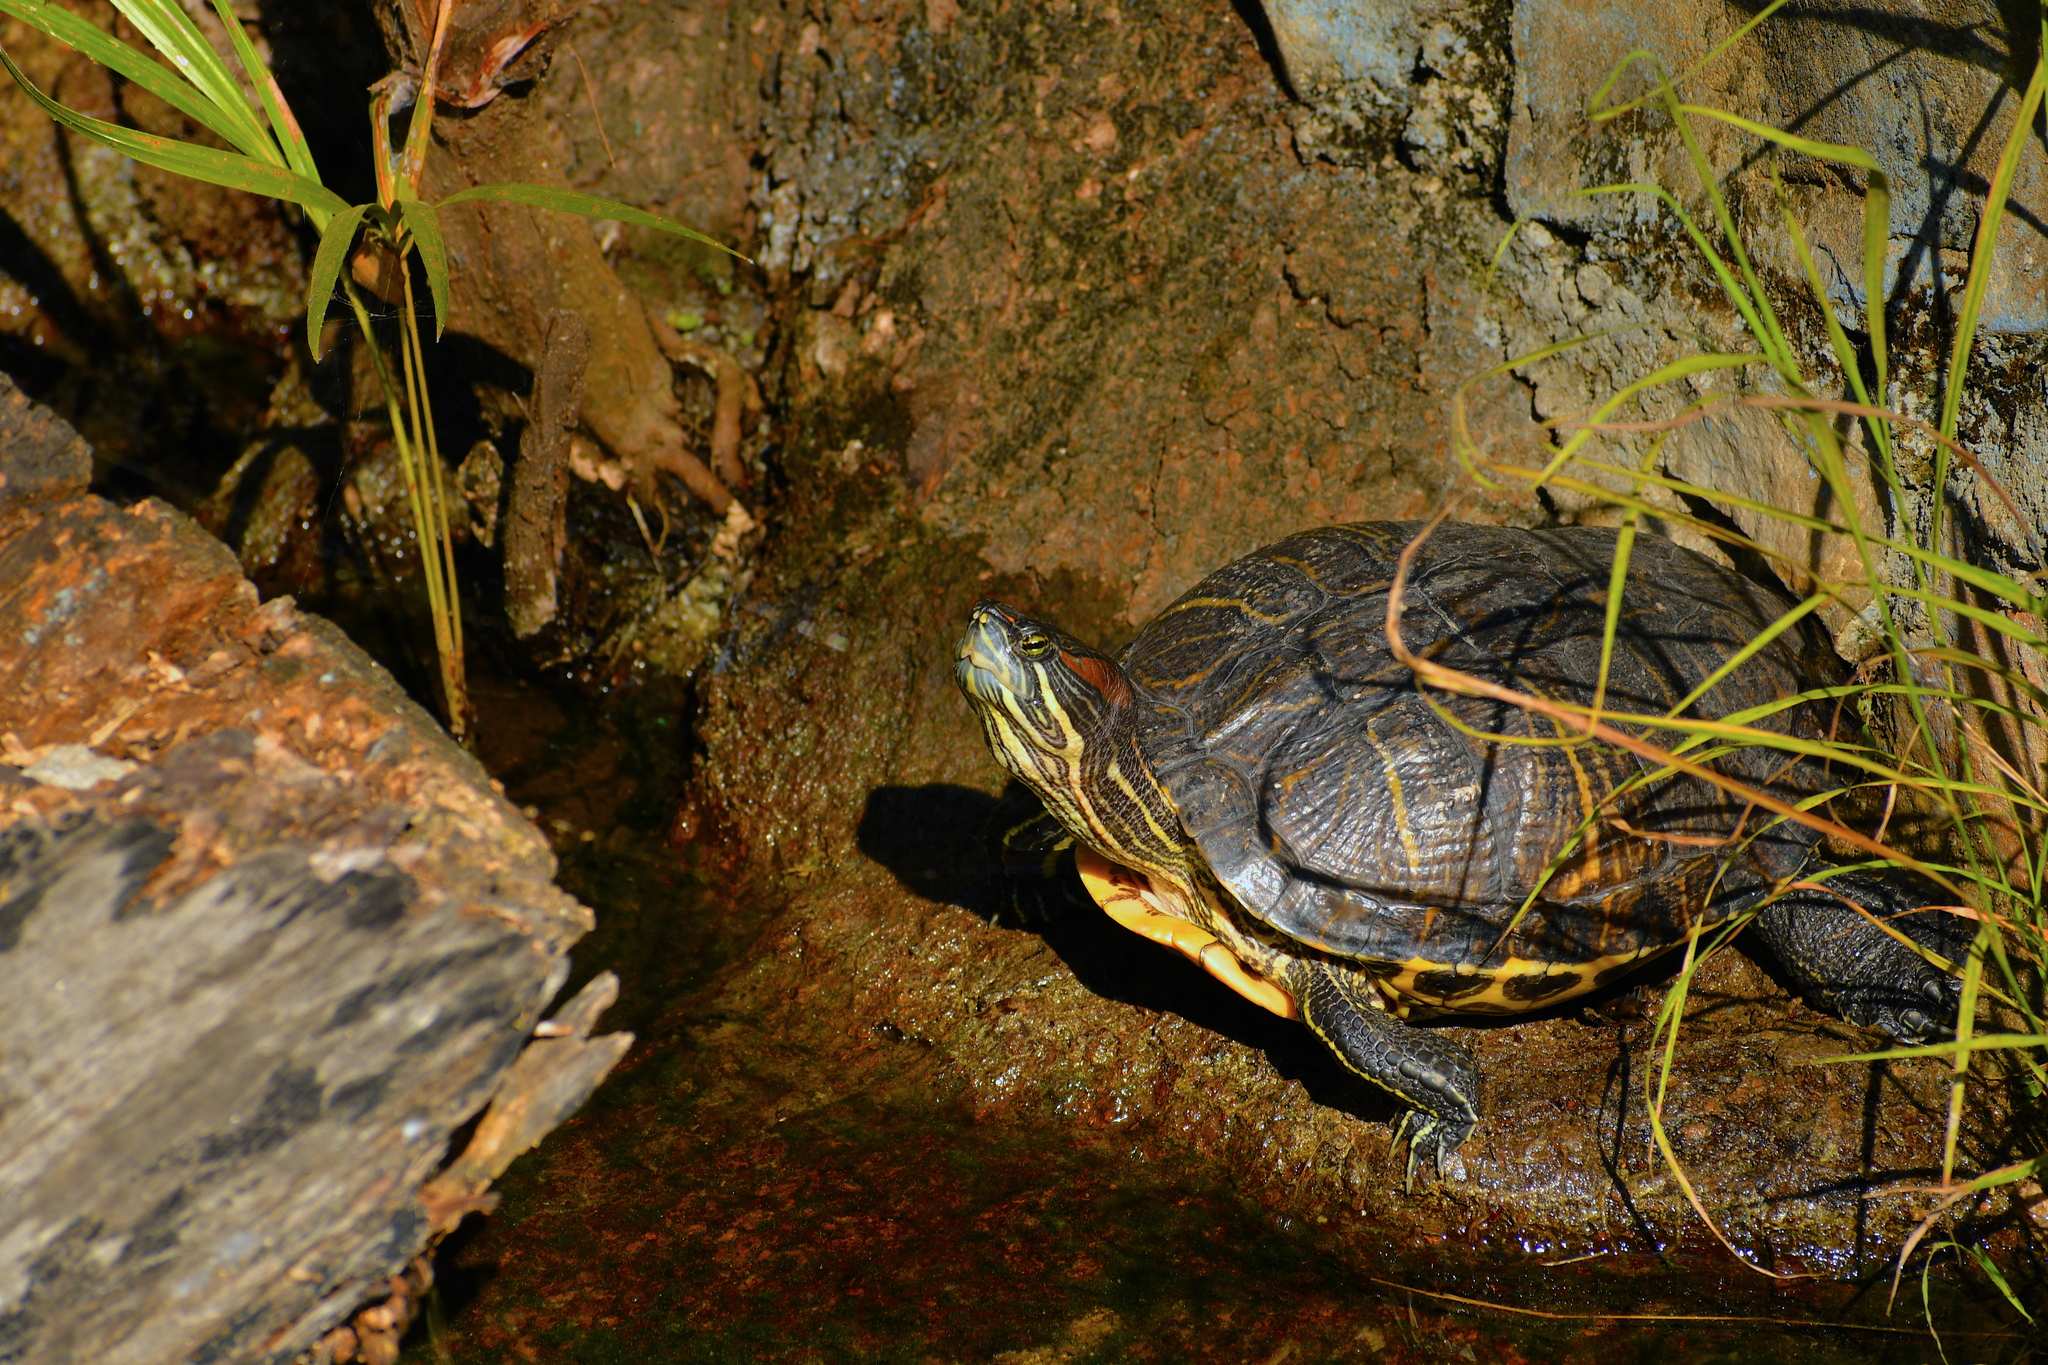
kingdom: Animalia
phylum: Chordata
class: Testudines
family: Emydidae
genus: Trachemys
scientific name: Trachemys scripta
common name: Slider
